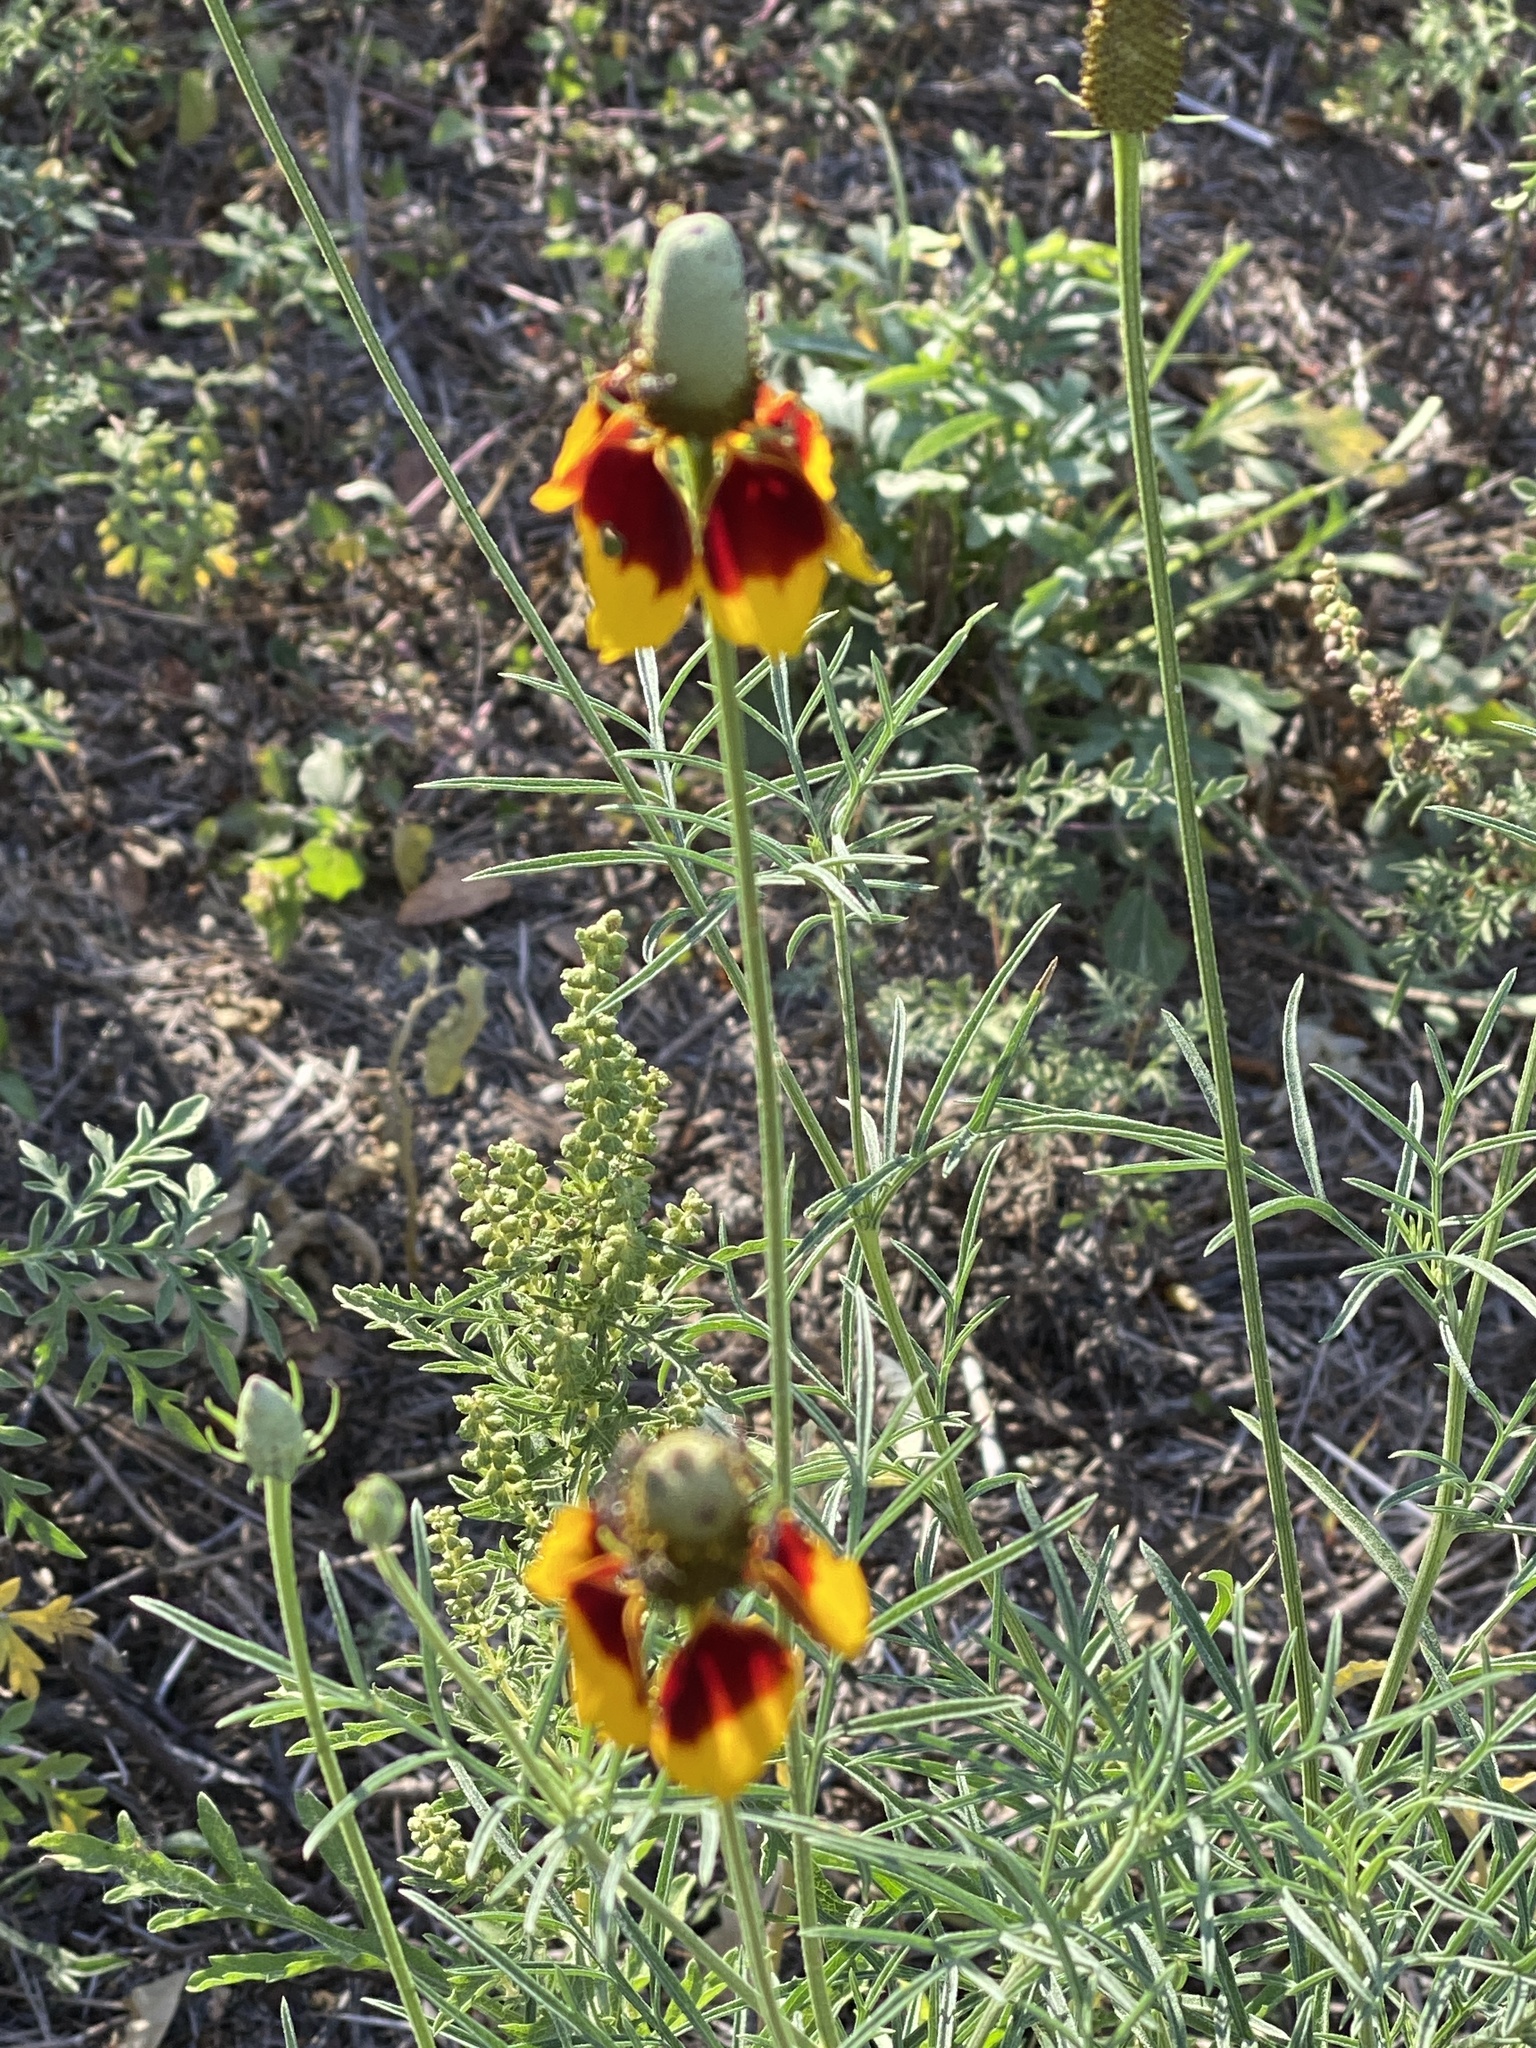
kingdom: Plantae
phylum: Tracheophyta
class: Magnoliopsida
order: Asterales
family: Asteraceae
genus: Ratibida
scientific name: Ratibida columnifera
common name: Prairie coneflower
